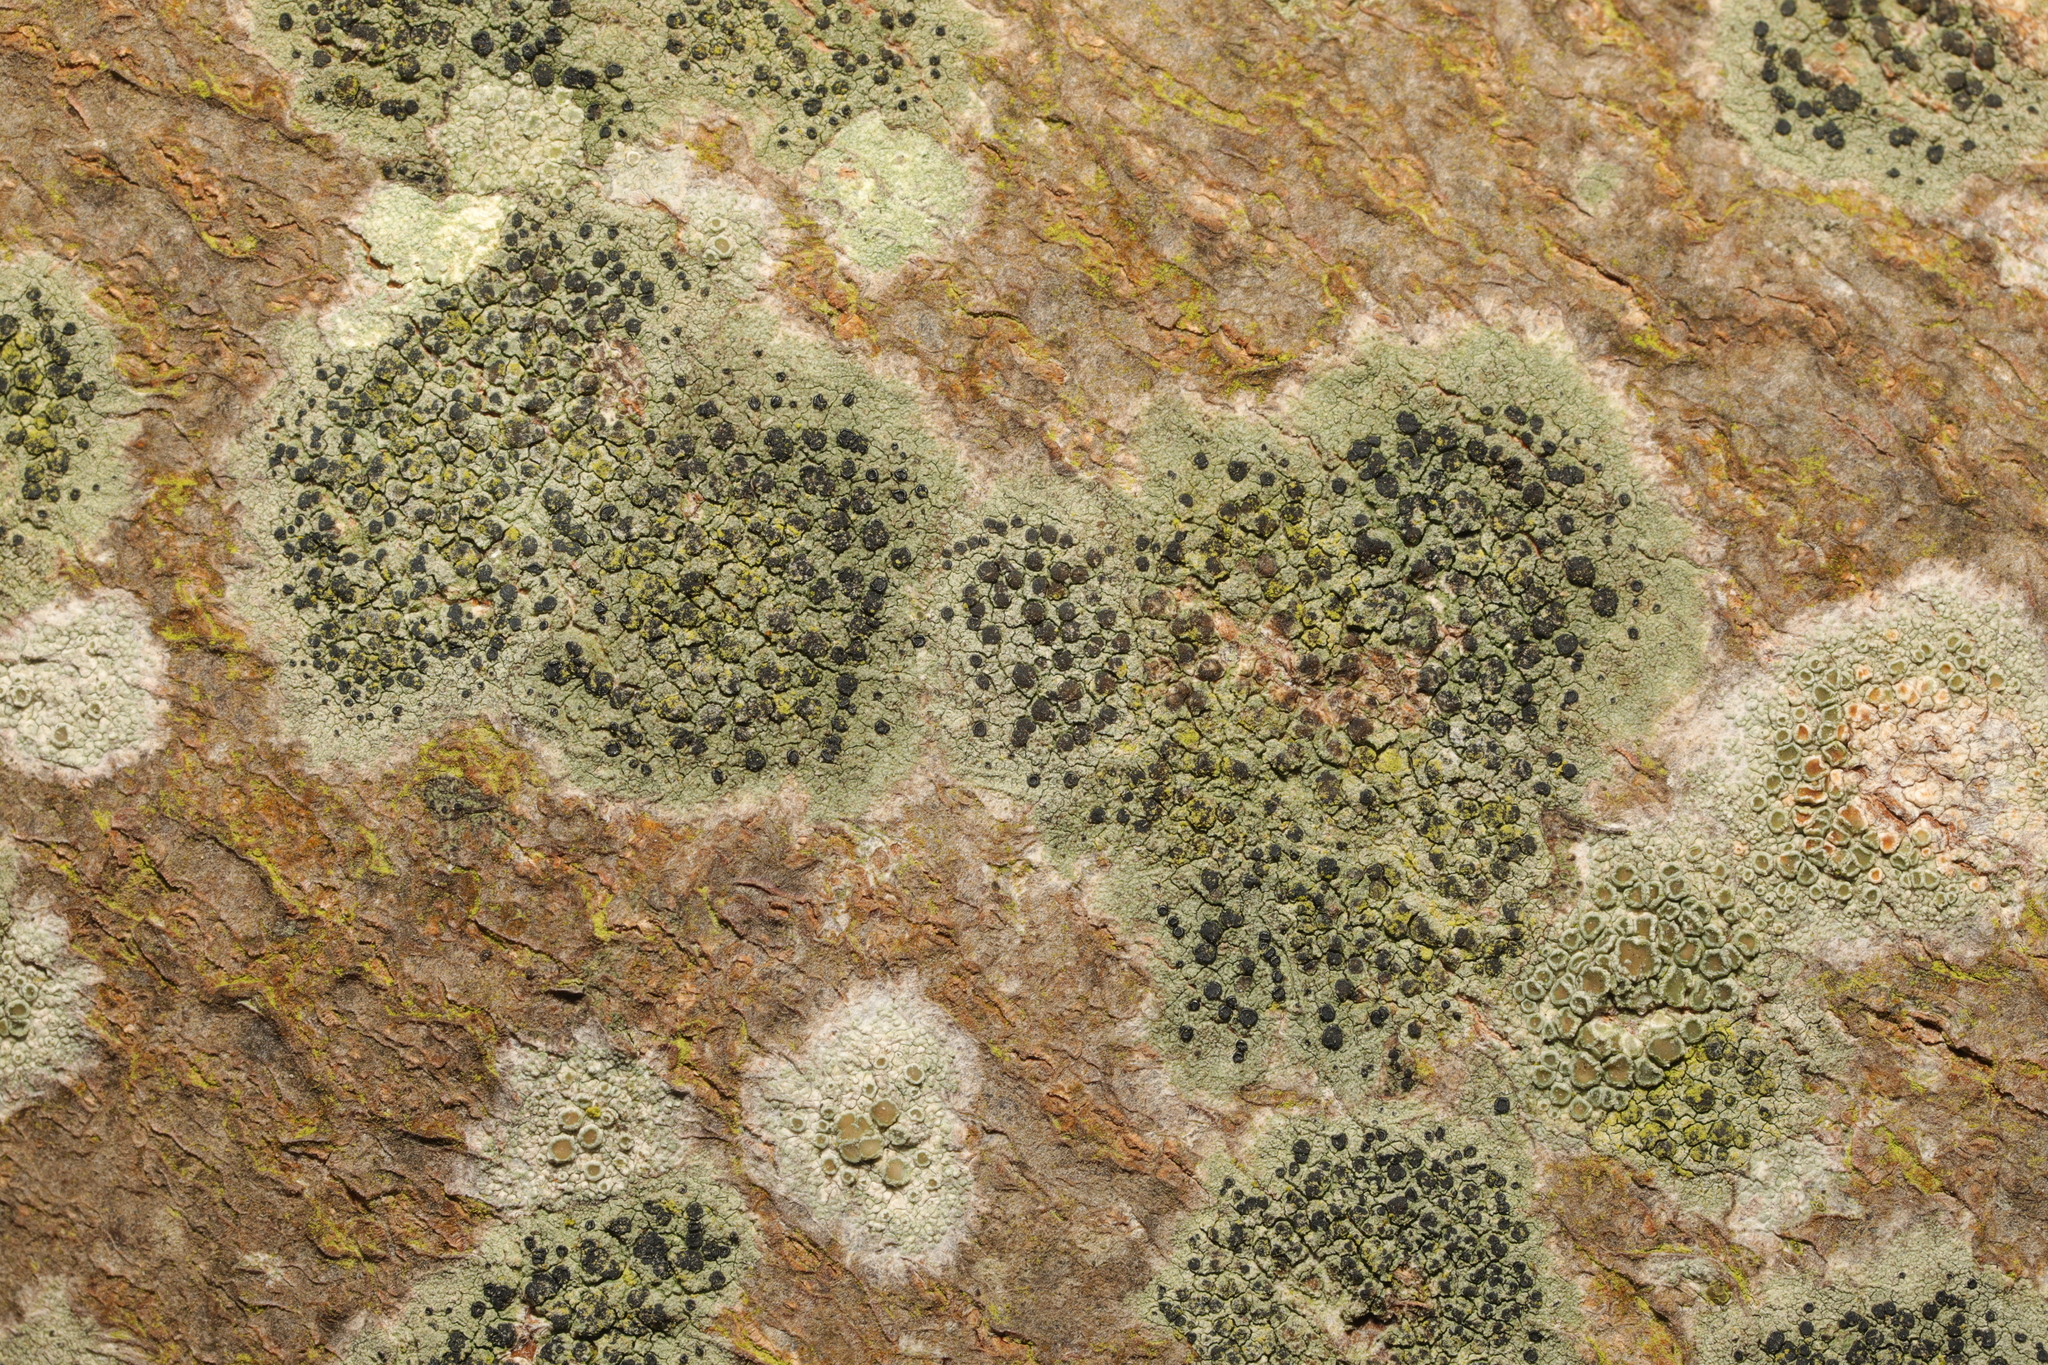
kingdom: Fungi
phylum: Ascomycota
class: Lecanoromycetes
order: Lecanorales
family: Lecanoraceae
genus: Lecidella
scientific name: Lecidella elaeochroma
